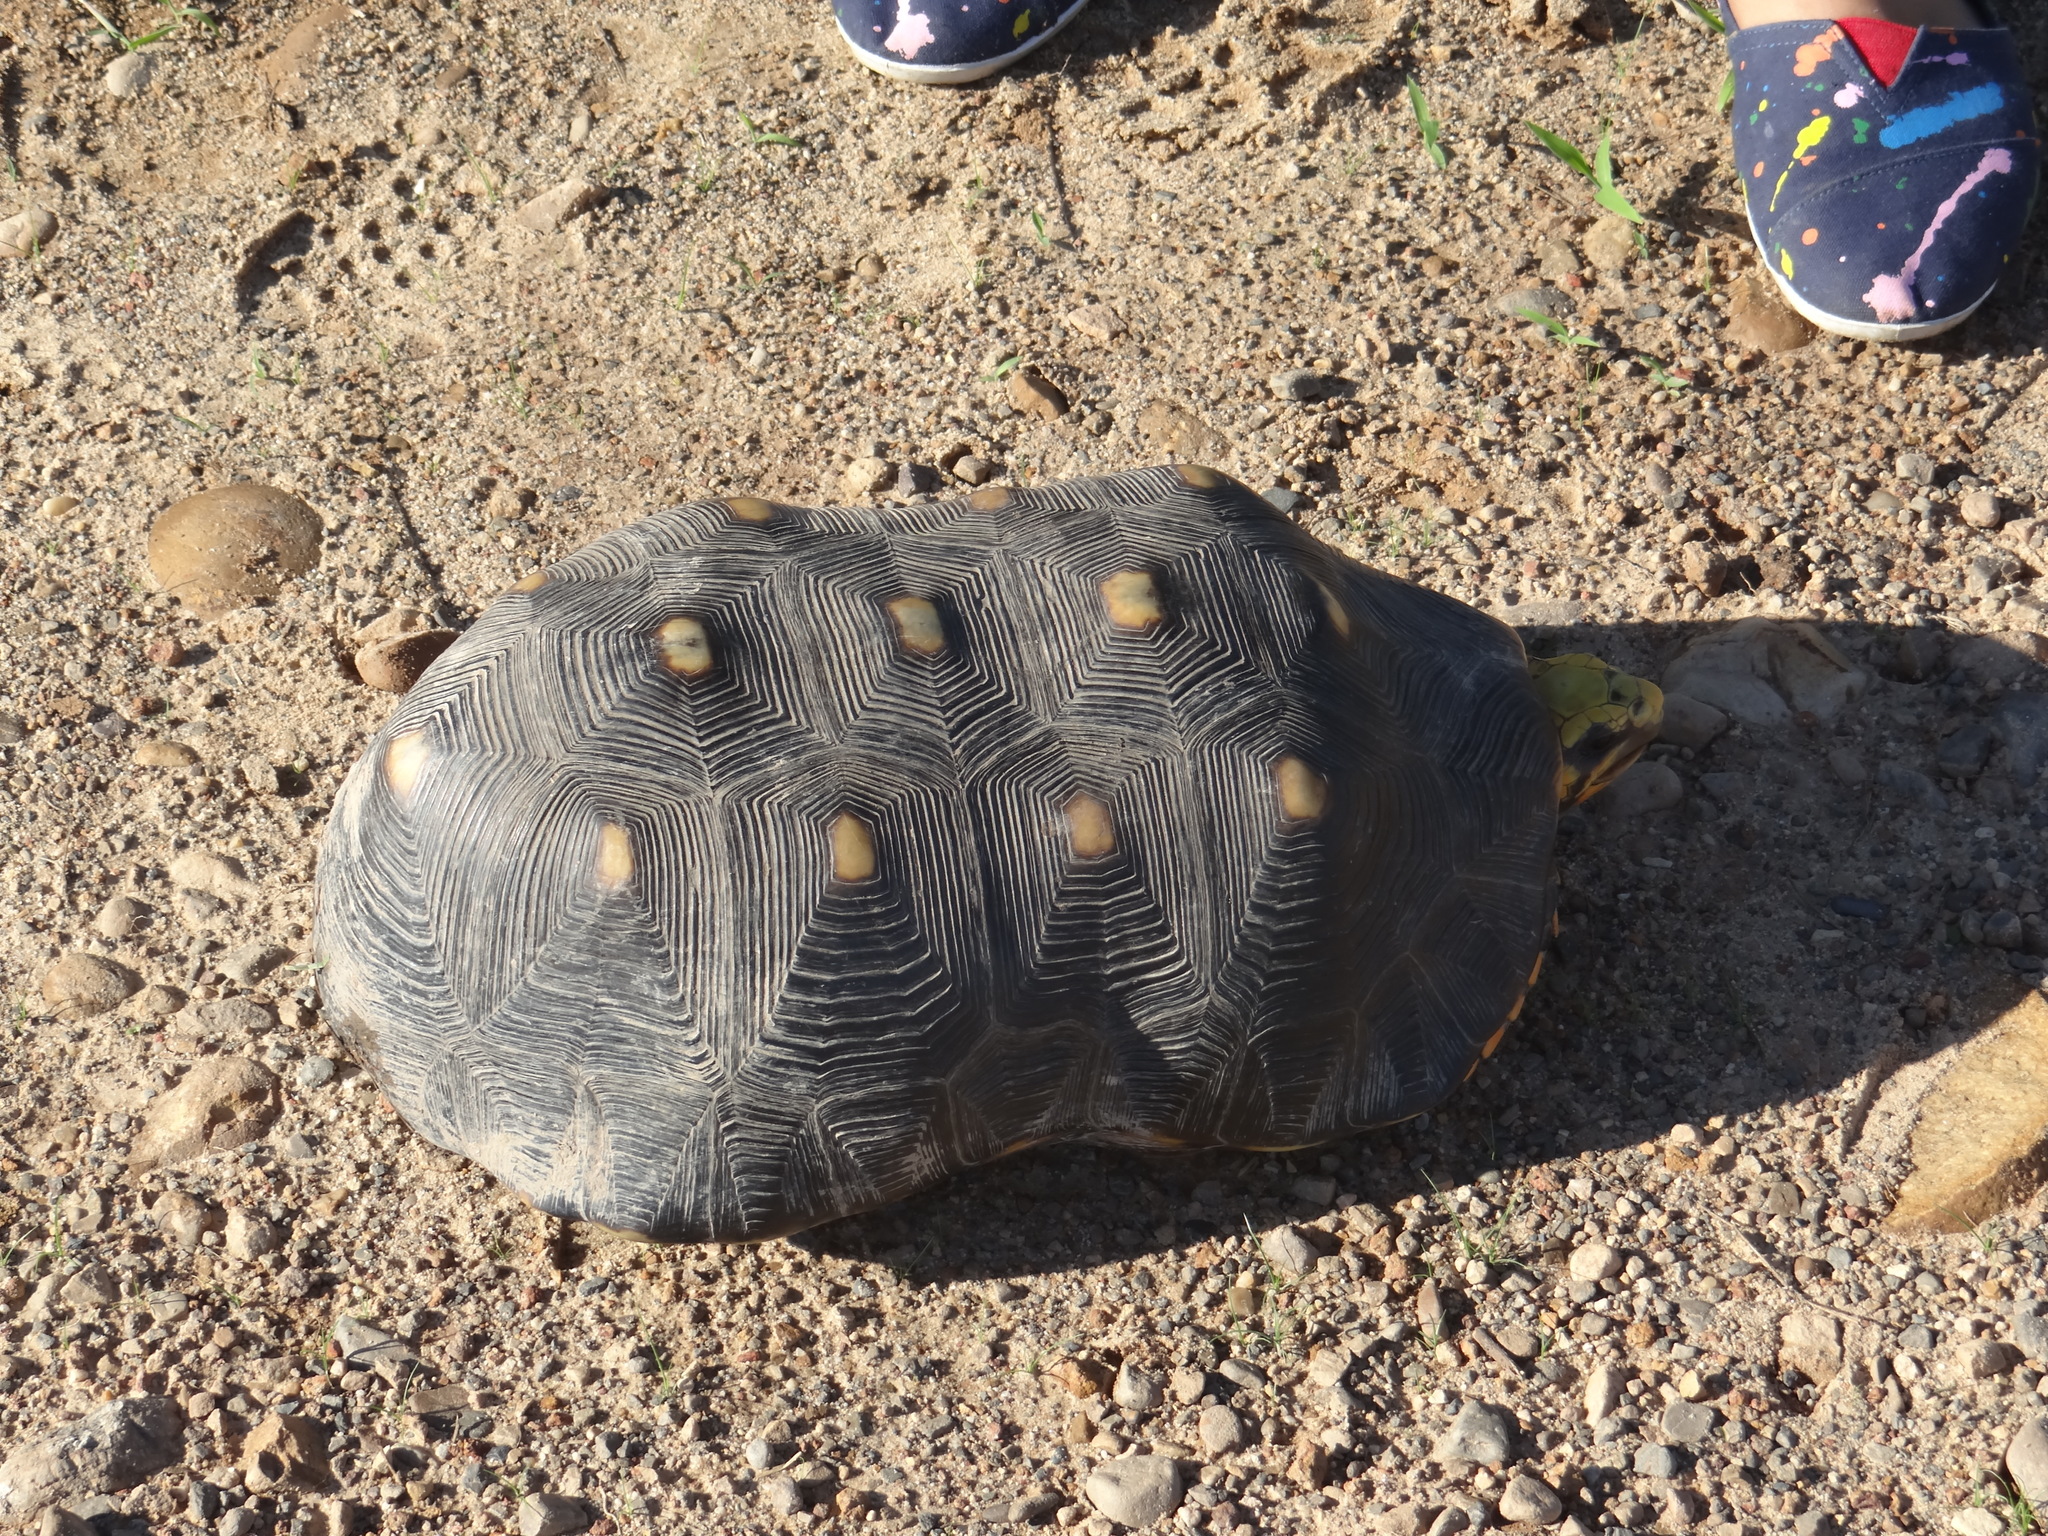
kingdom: Animalia
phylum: Chordata
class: Testudines
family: Testudinidae
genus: Chelonoidis
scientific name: Chelonoidis carbonarius
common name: Red-footed tortoise
